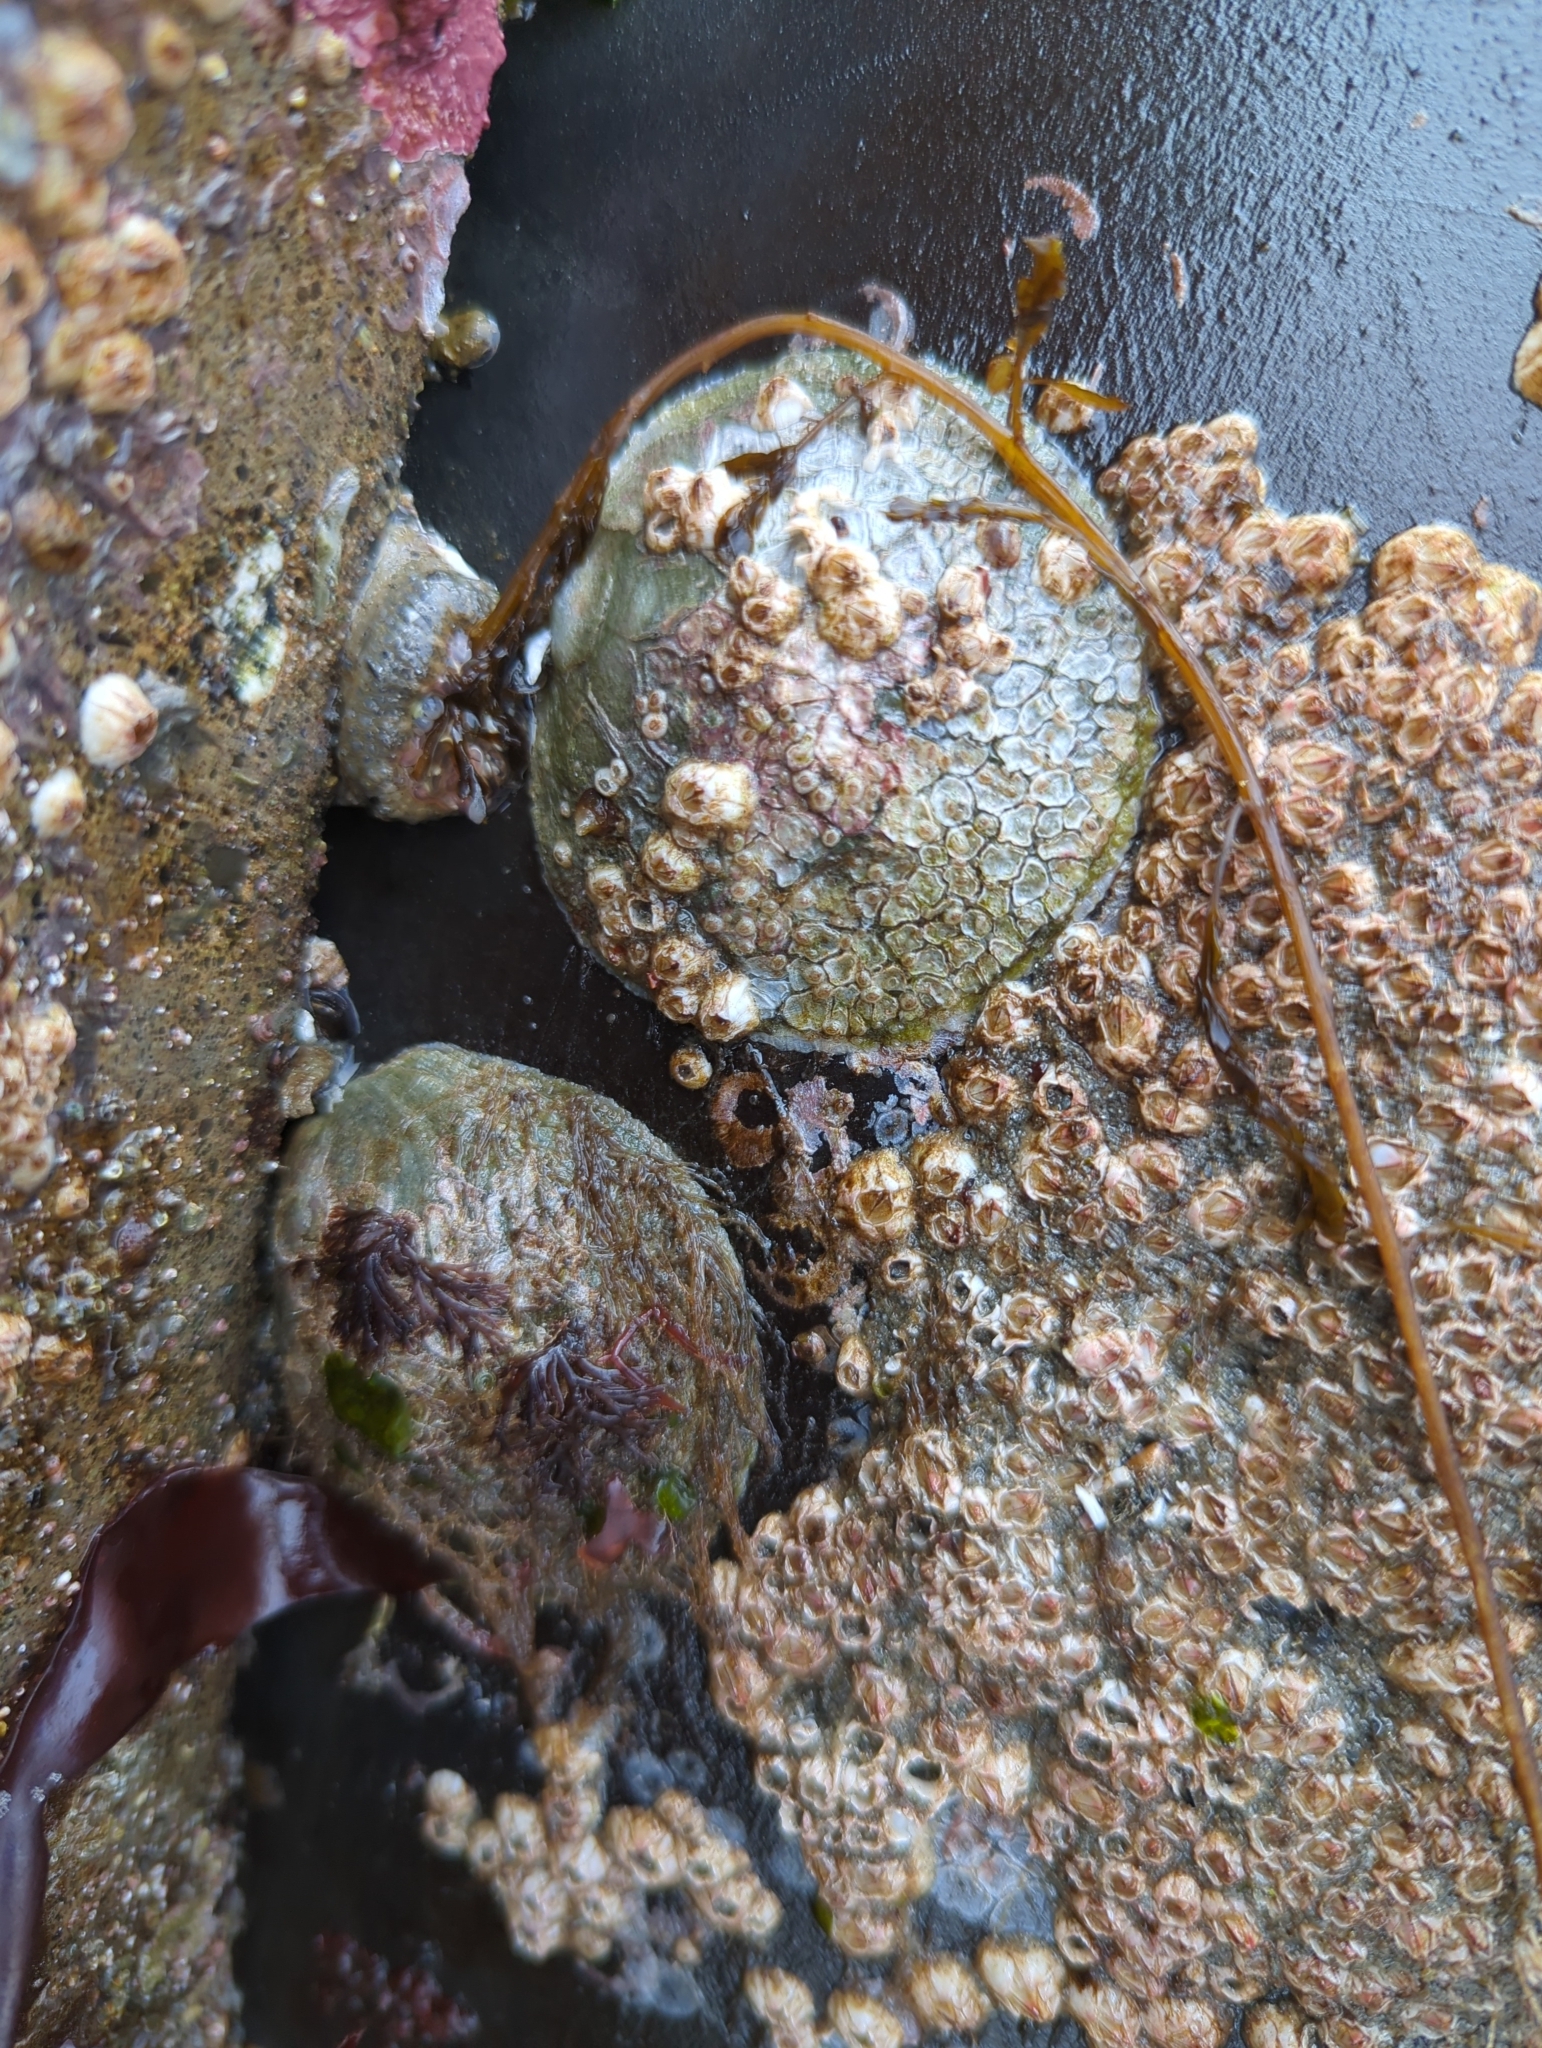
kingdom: Animalia
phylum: Mollusca
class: Bivalvia
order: Pectinida
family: Anomiidae
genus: Pododesmus
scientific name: Pododesmus macrochisma
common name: Alaska jingle
